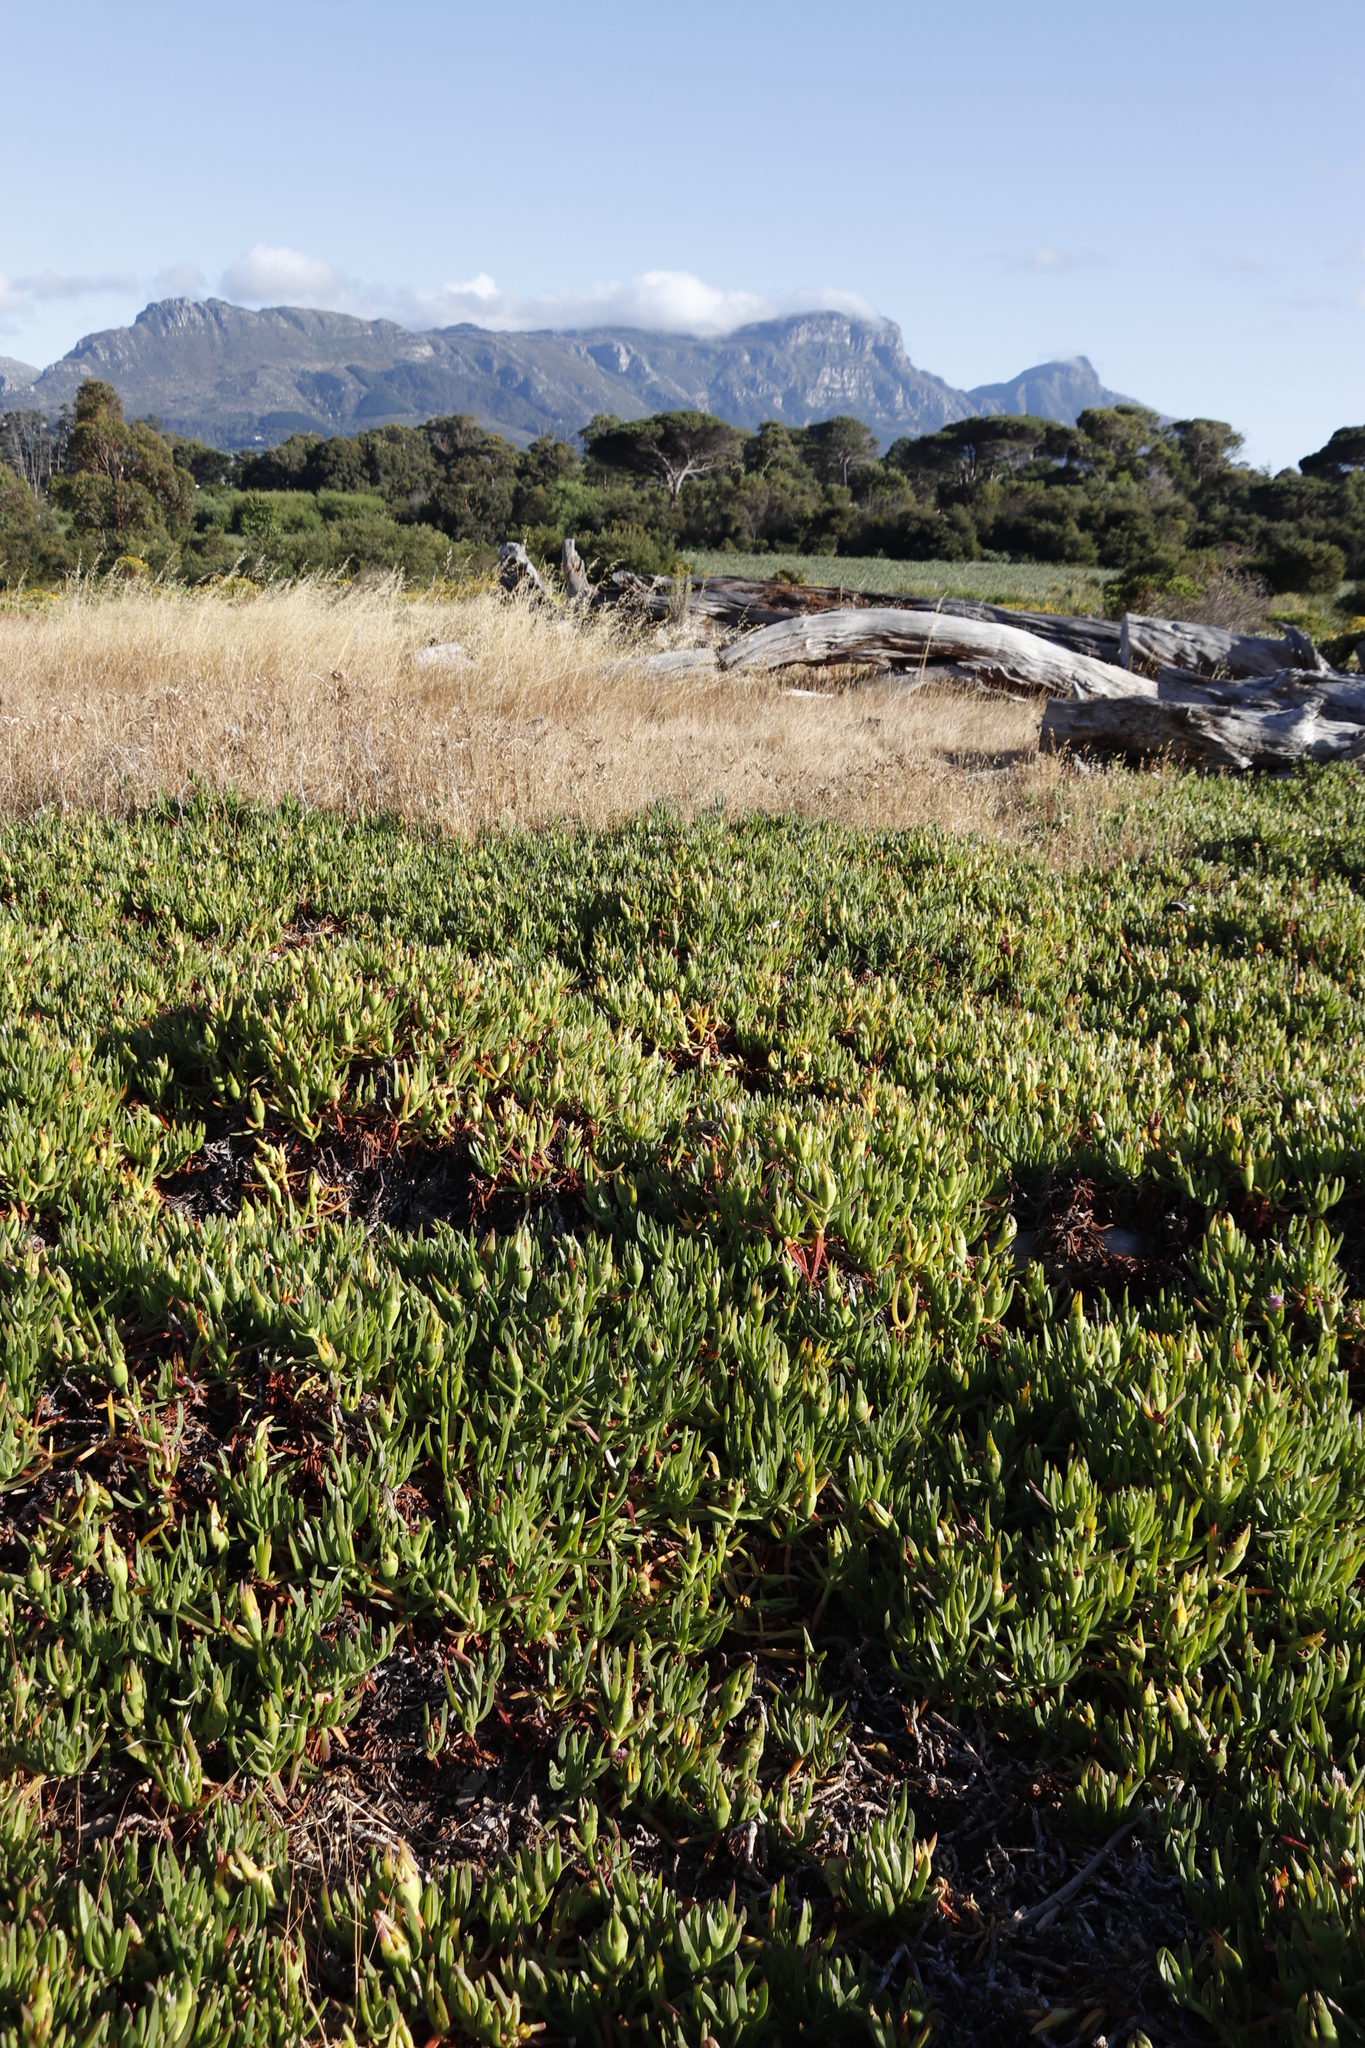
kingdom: Plantae
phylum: Tracheophyta
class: Magnoliopsida
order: Caryophyllales
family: Aizoaceae
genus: Carpobrotus
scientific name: Carpobrotus edulis
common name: Hottentot-fig
